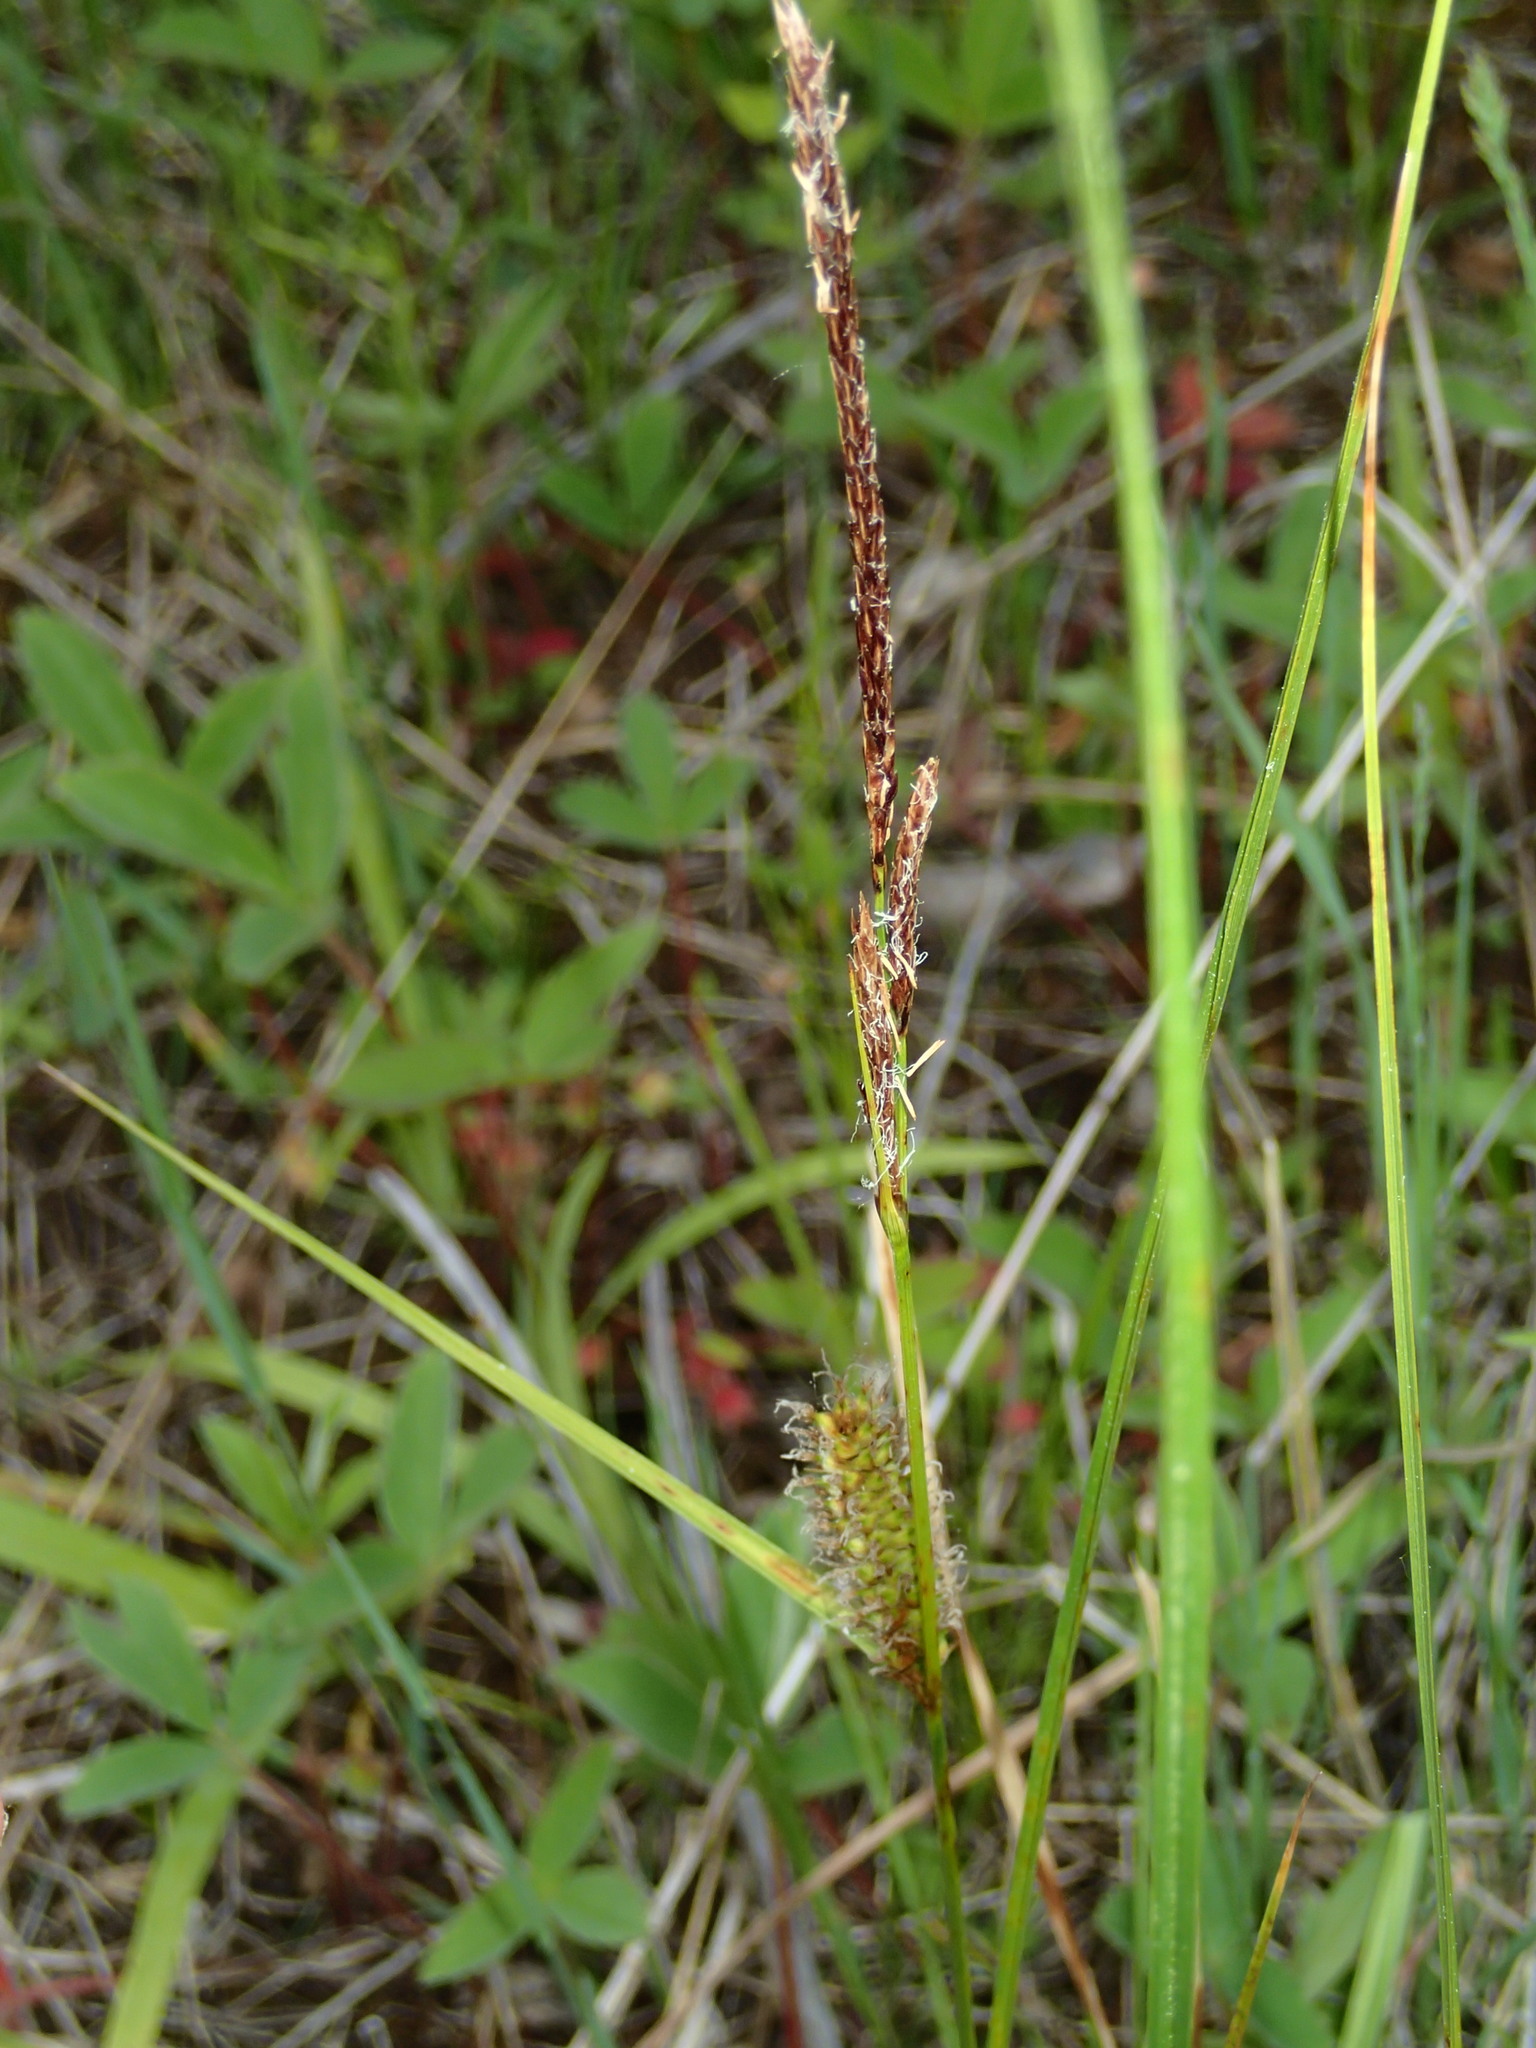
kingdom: Plantae
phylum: Tracheophyta
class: Liliopsida
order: Poales
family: Cyperaceae
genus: Carex
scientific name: Carex pellita
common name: Woolly sedge
